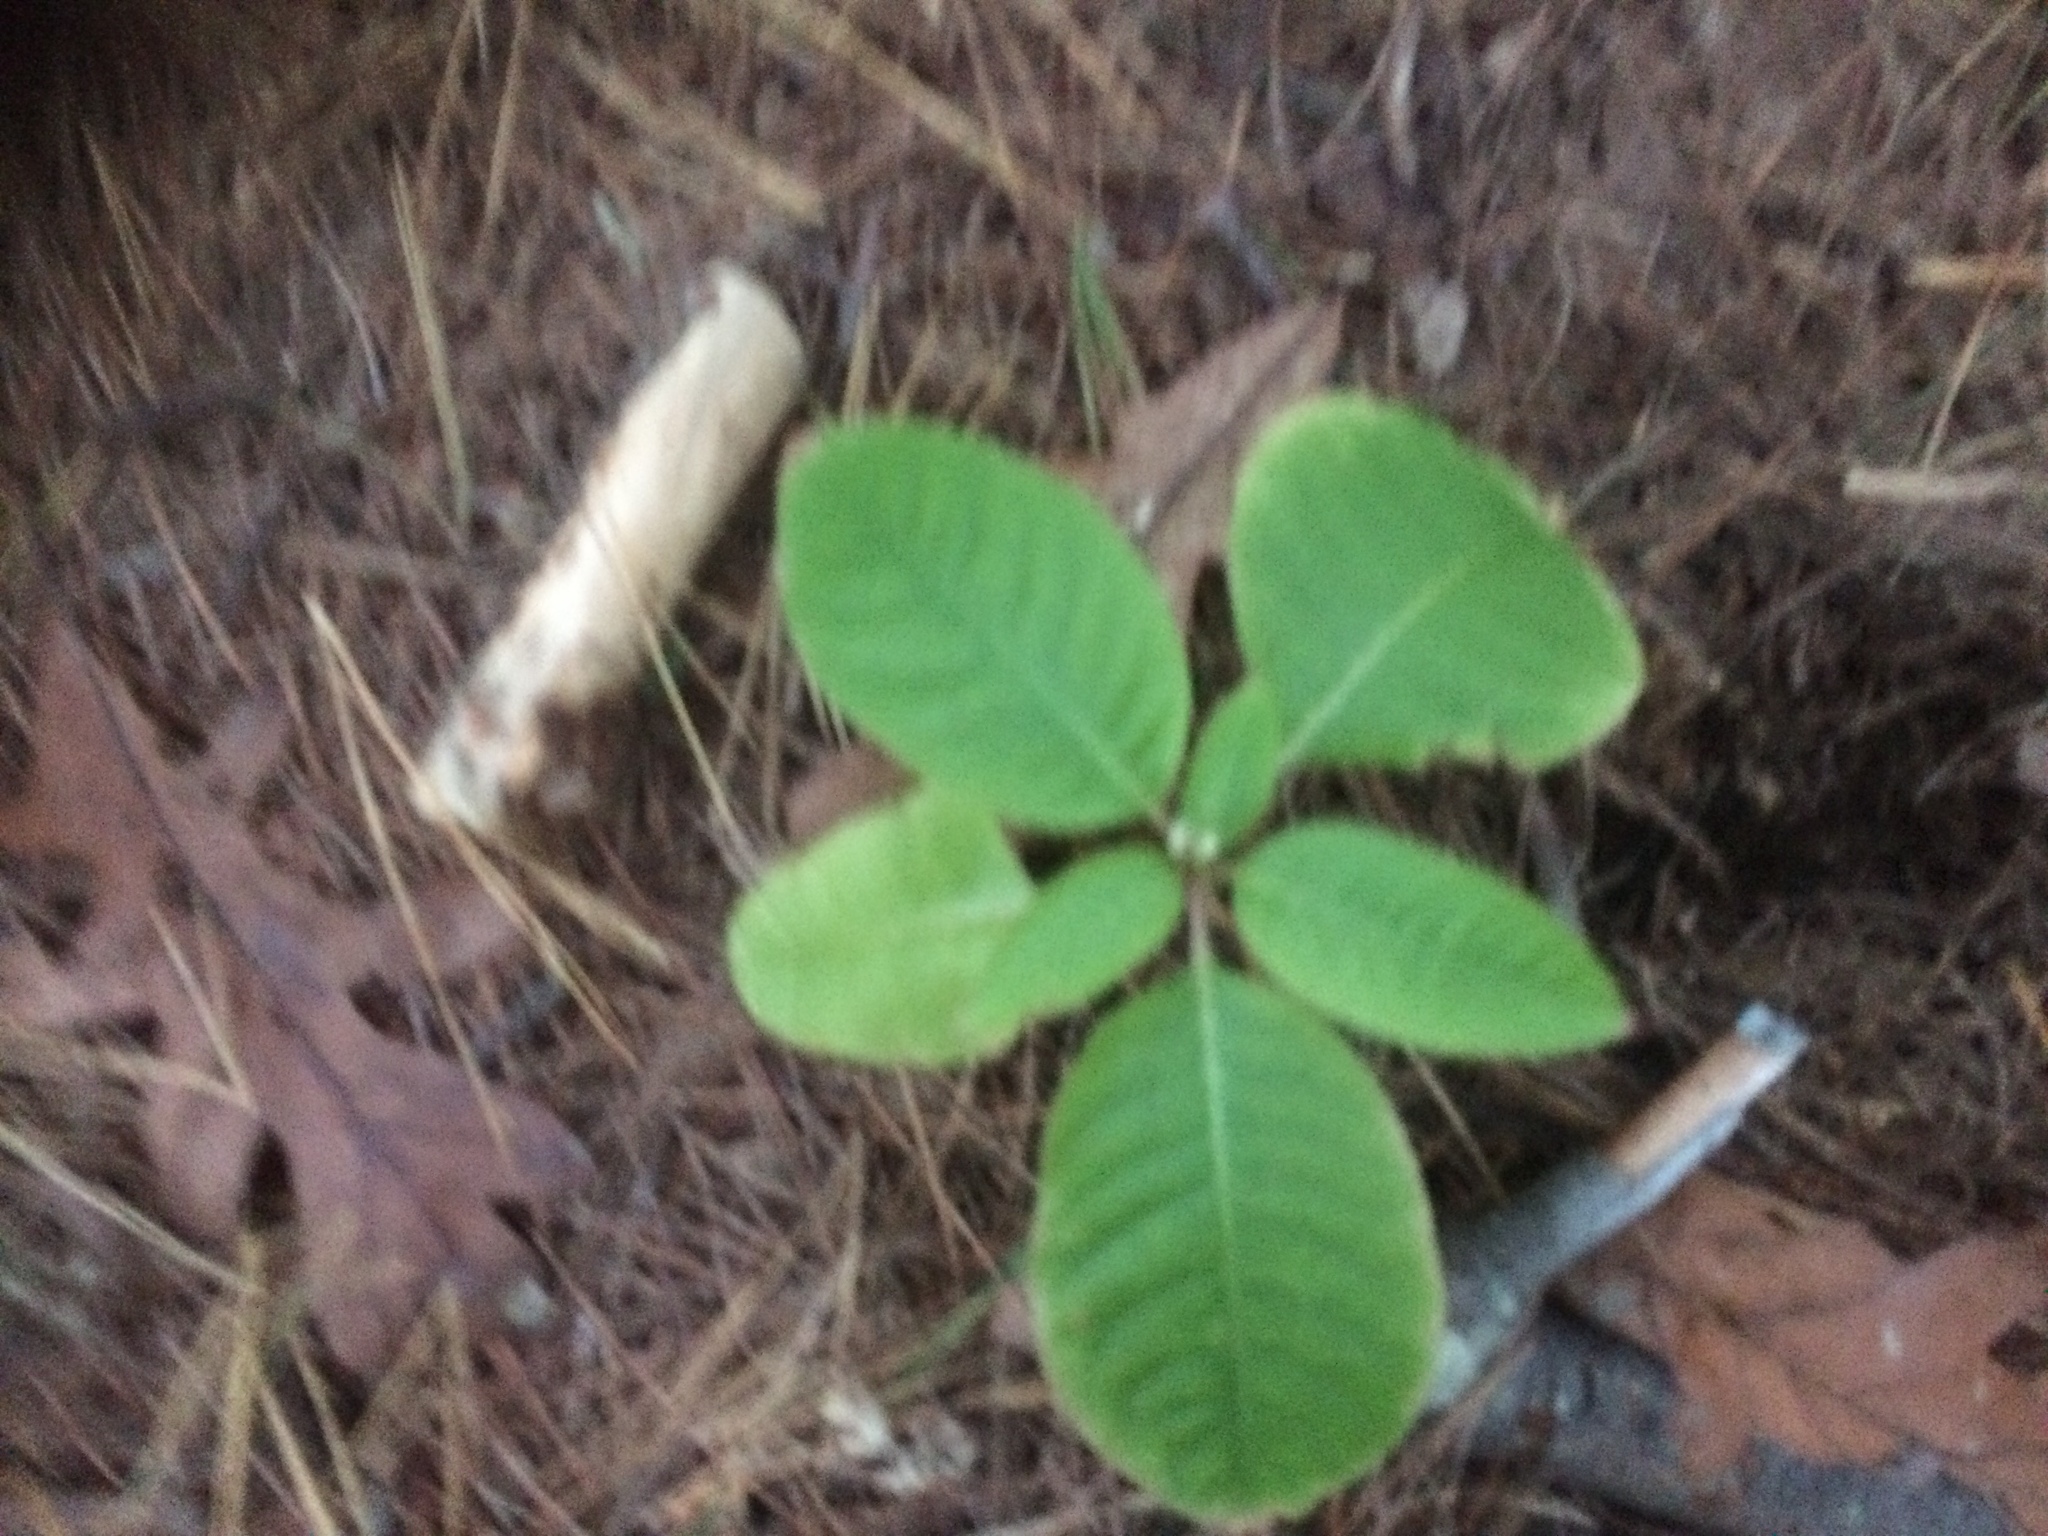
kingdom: Plantae
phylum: Tracheophyta
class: Magnoliopsida
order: Caryophyllales
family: Phytolaccaceae
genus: Phytolacca
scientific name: Phytolacca americana
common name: American pokeweed
